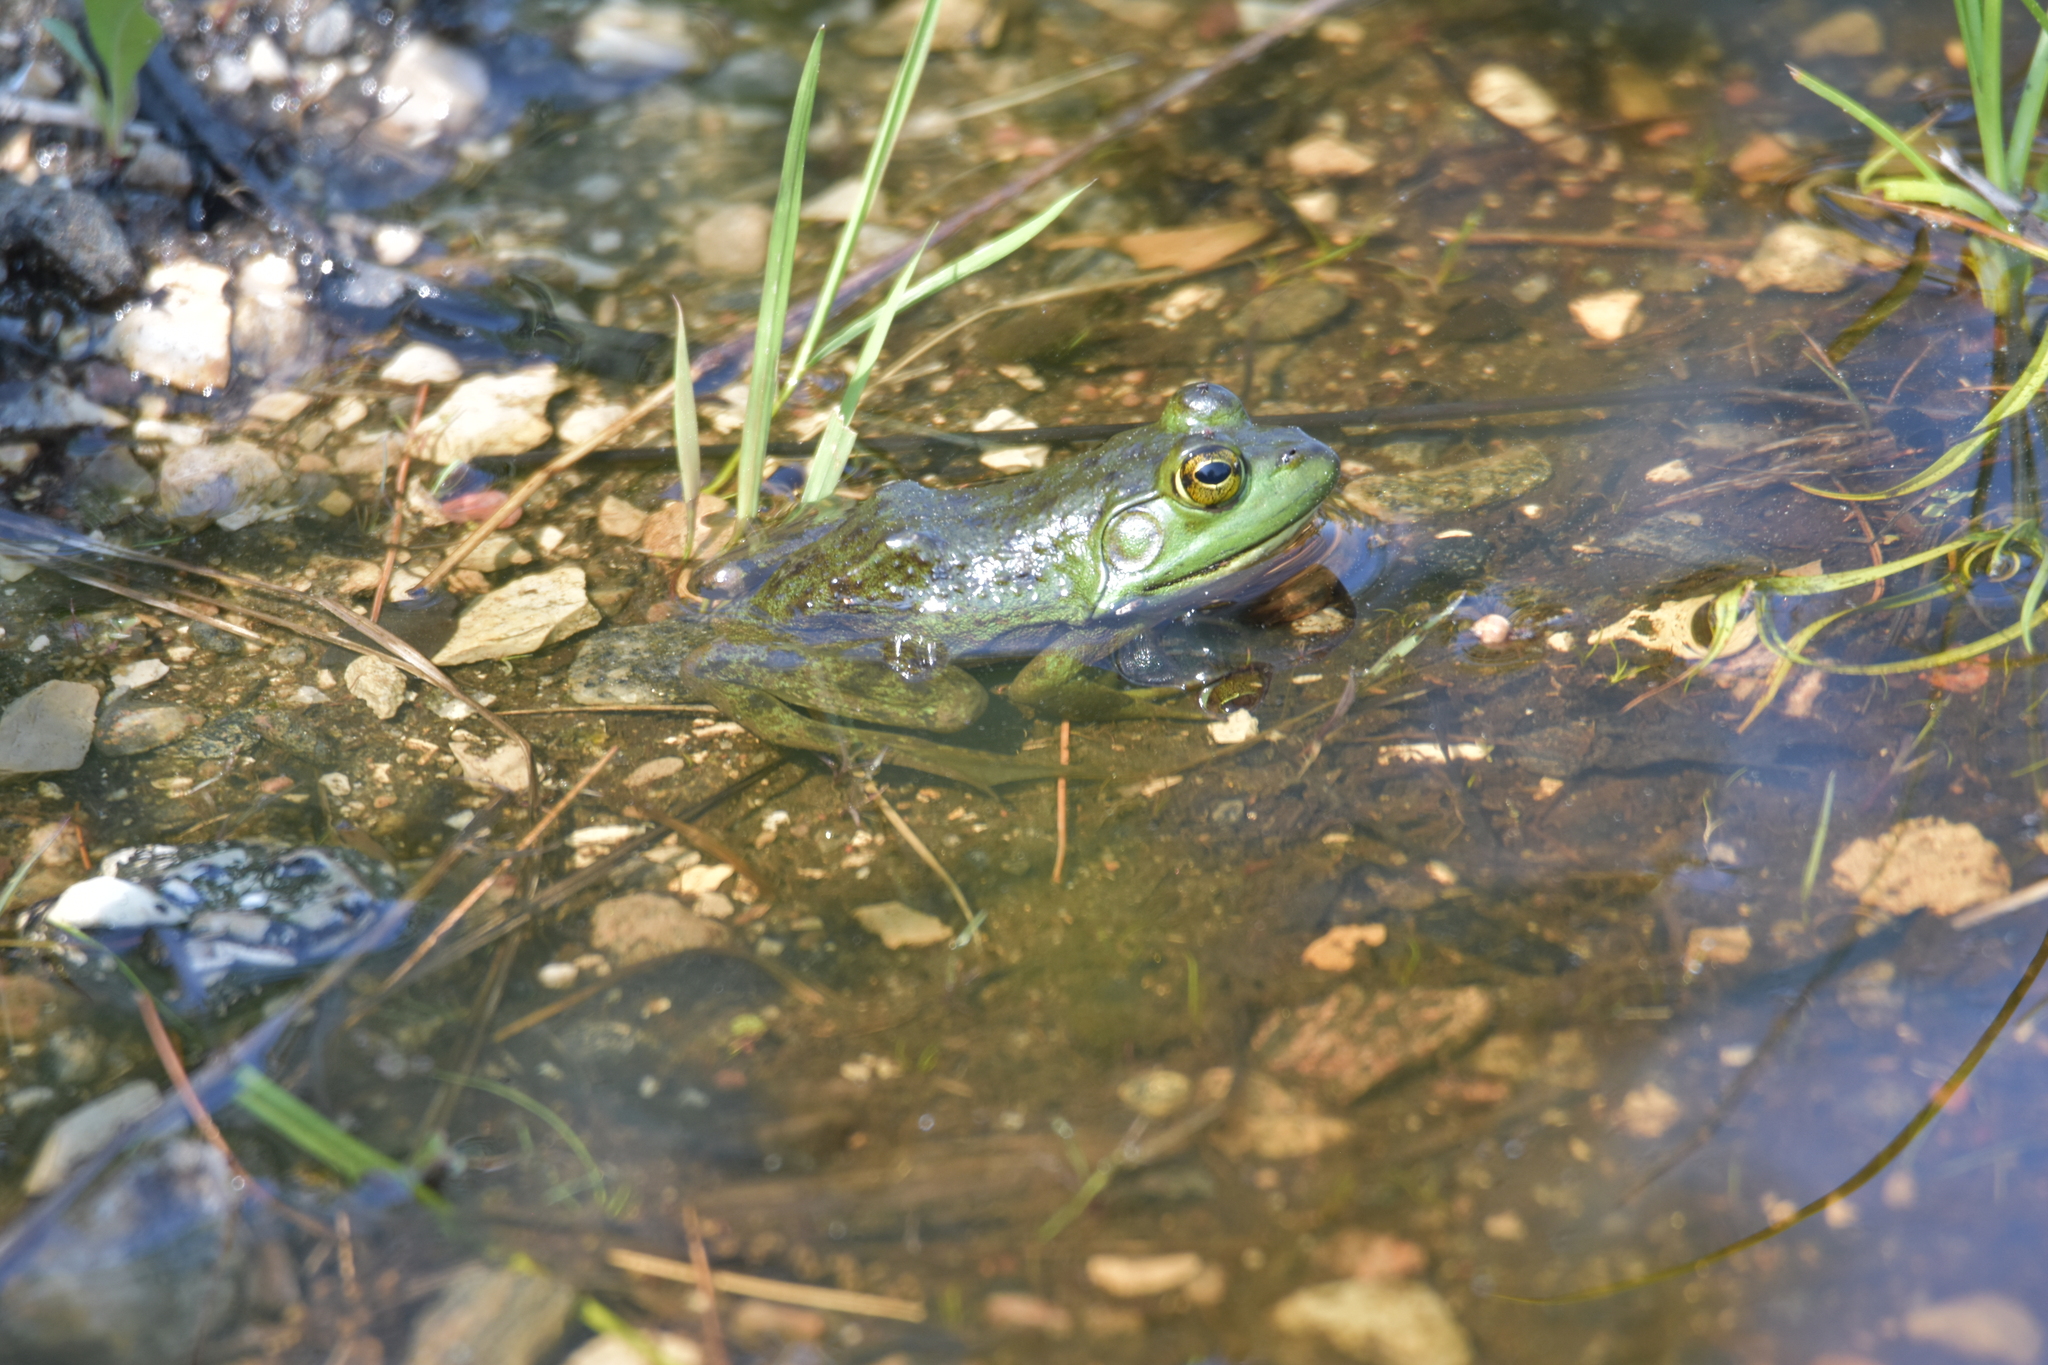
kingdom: Animalia
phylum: Chordata
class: Amphibia
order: Anura
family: Ranidae
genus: Lithobates
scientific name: Lithobates catesbeianus
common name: American bullfrog
